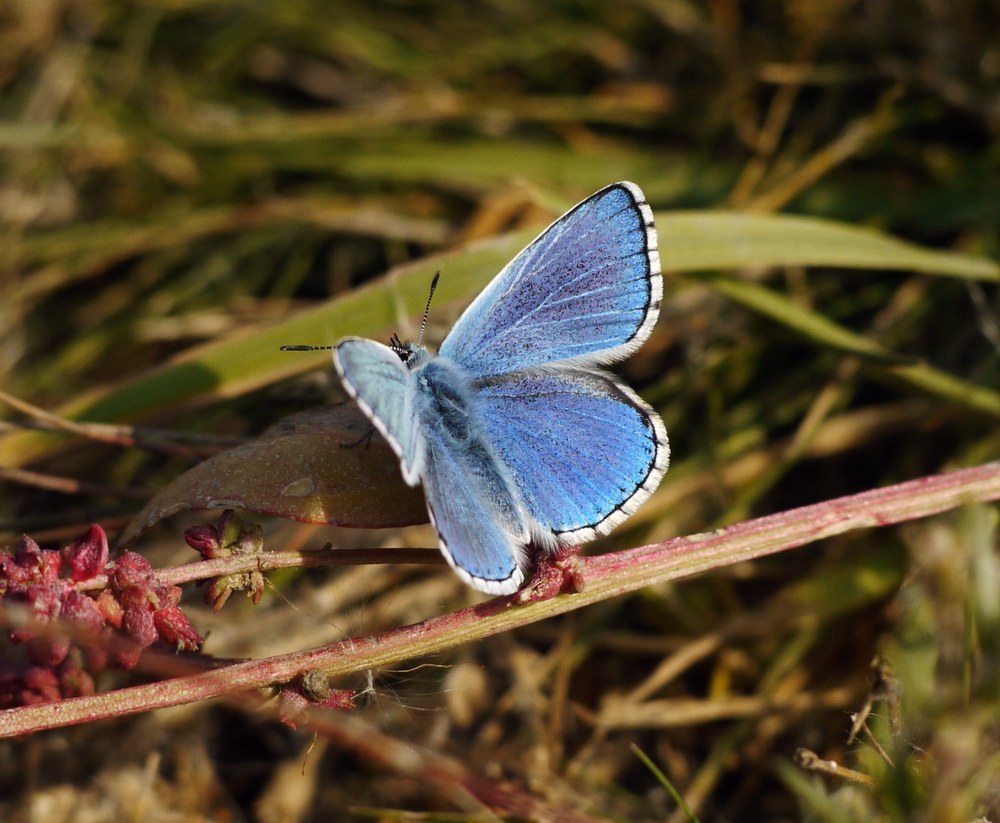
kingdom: Animalia
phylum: Arthropoda
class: Insecta
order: Lepidoptera
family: Lycaenidae
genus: Lysandra
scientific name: Lysandra bellargus
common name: Adonis blue
